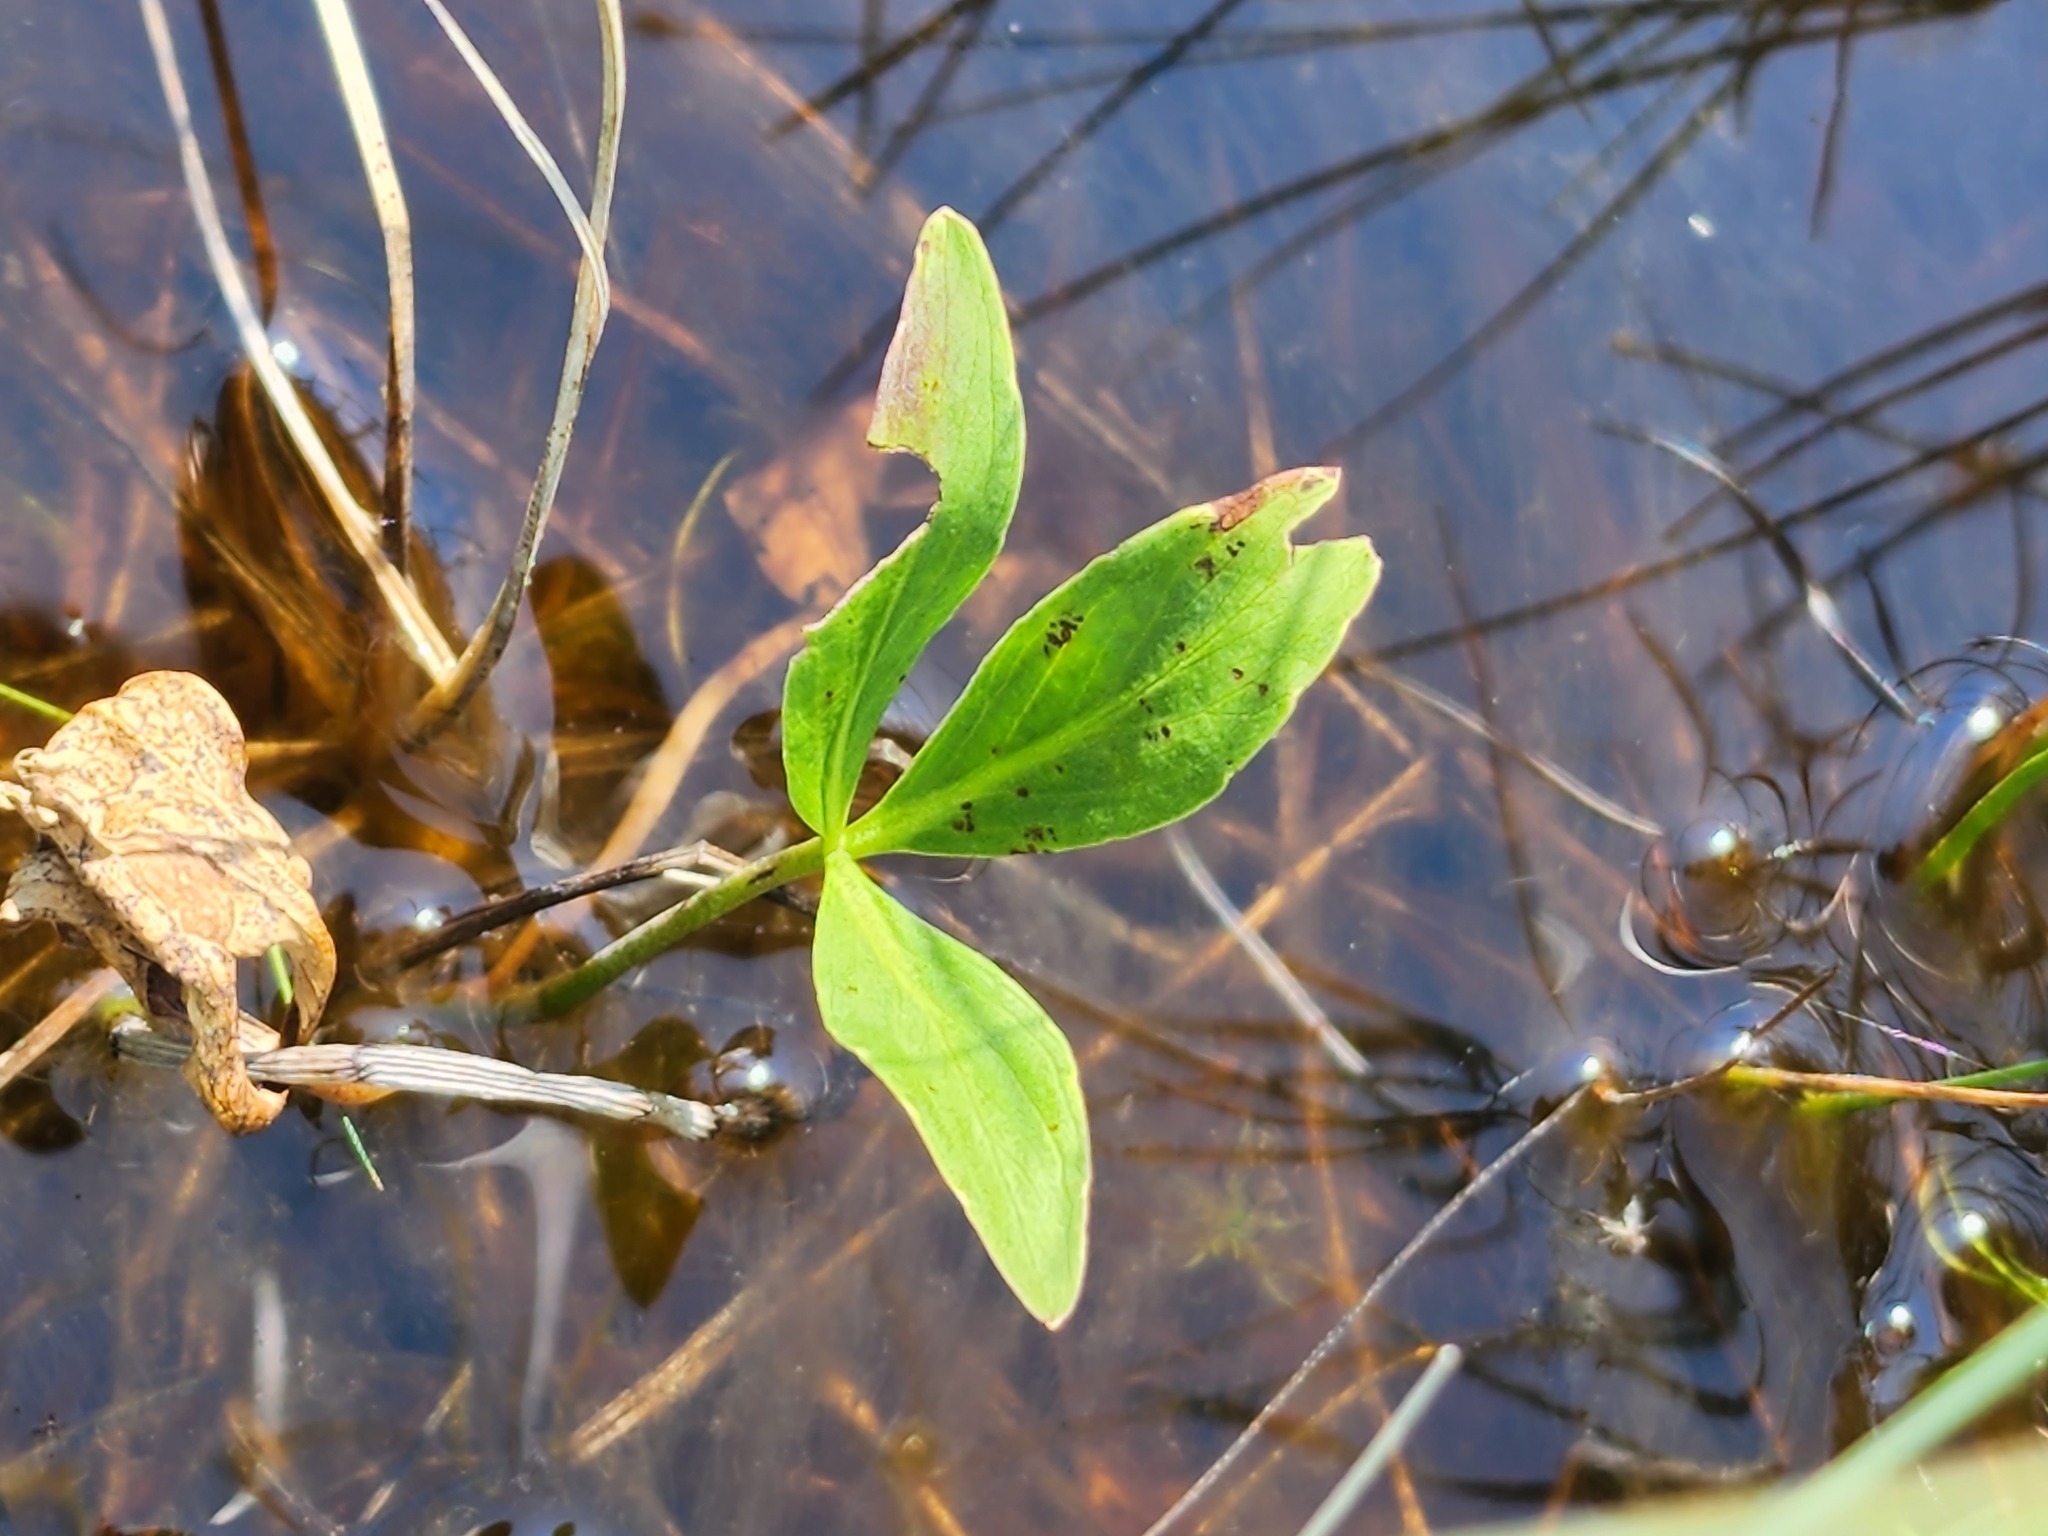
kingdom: Plantae
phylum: Tracheophyta
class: Magnoliopsida
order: Asterales
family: Menyanthaceae
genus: Menyanthes
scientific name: Menyanthes trifoliata
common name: Bogbean
